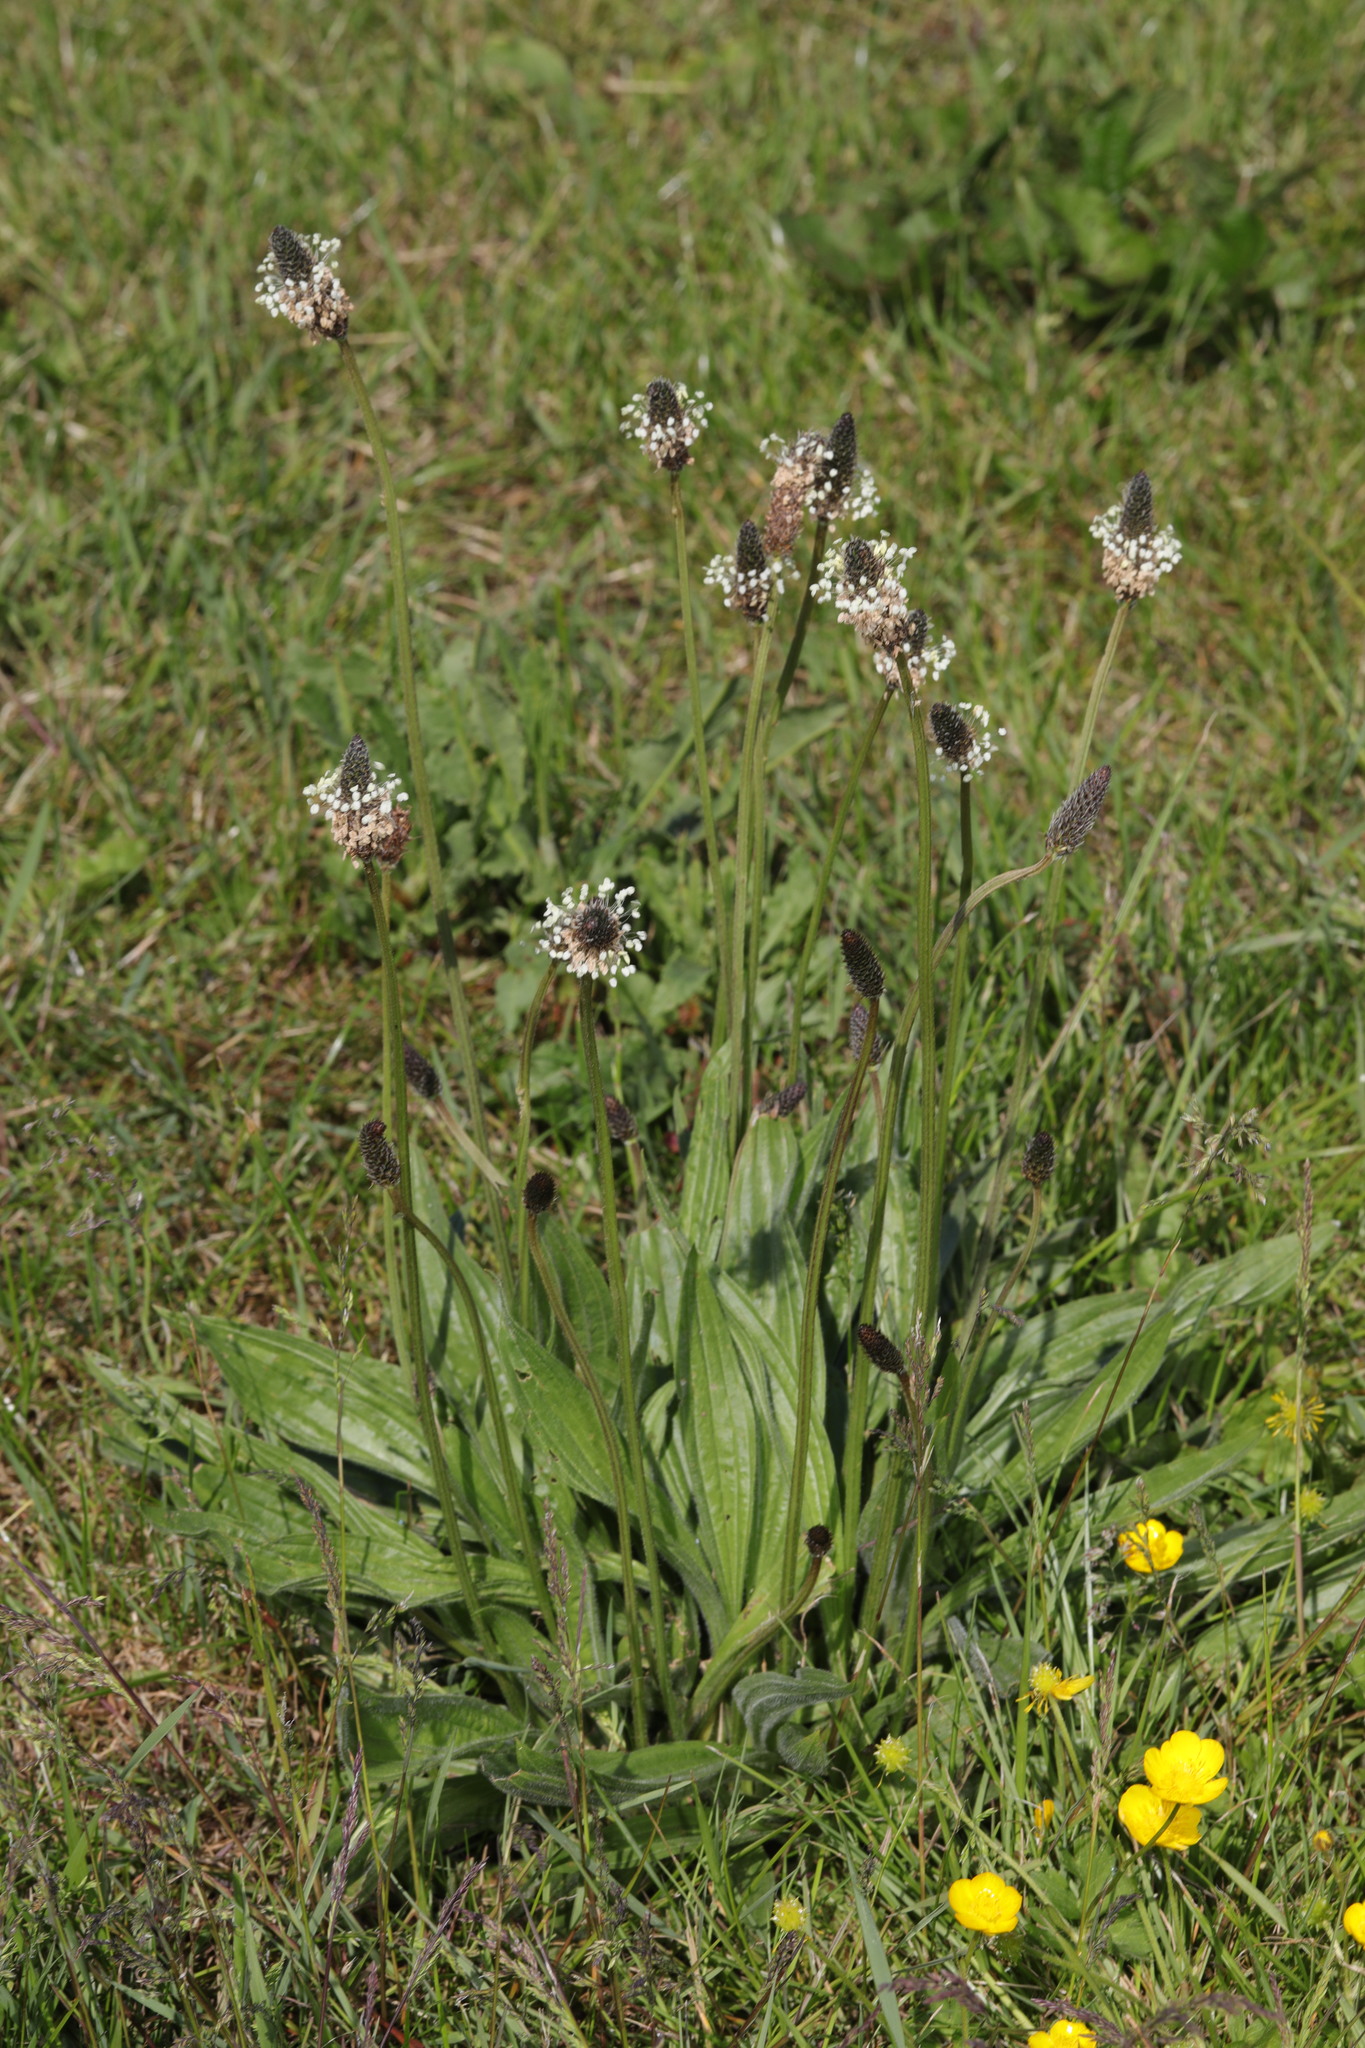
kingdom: Plantae
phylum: Tracheophyta
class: Magnoliopsida
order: Lamiales
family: Plantaginaceae
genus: Plantago
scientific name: Plantago lanceolata
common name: Ribwort plantain
